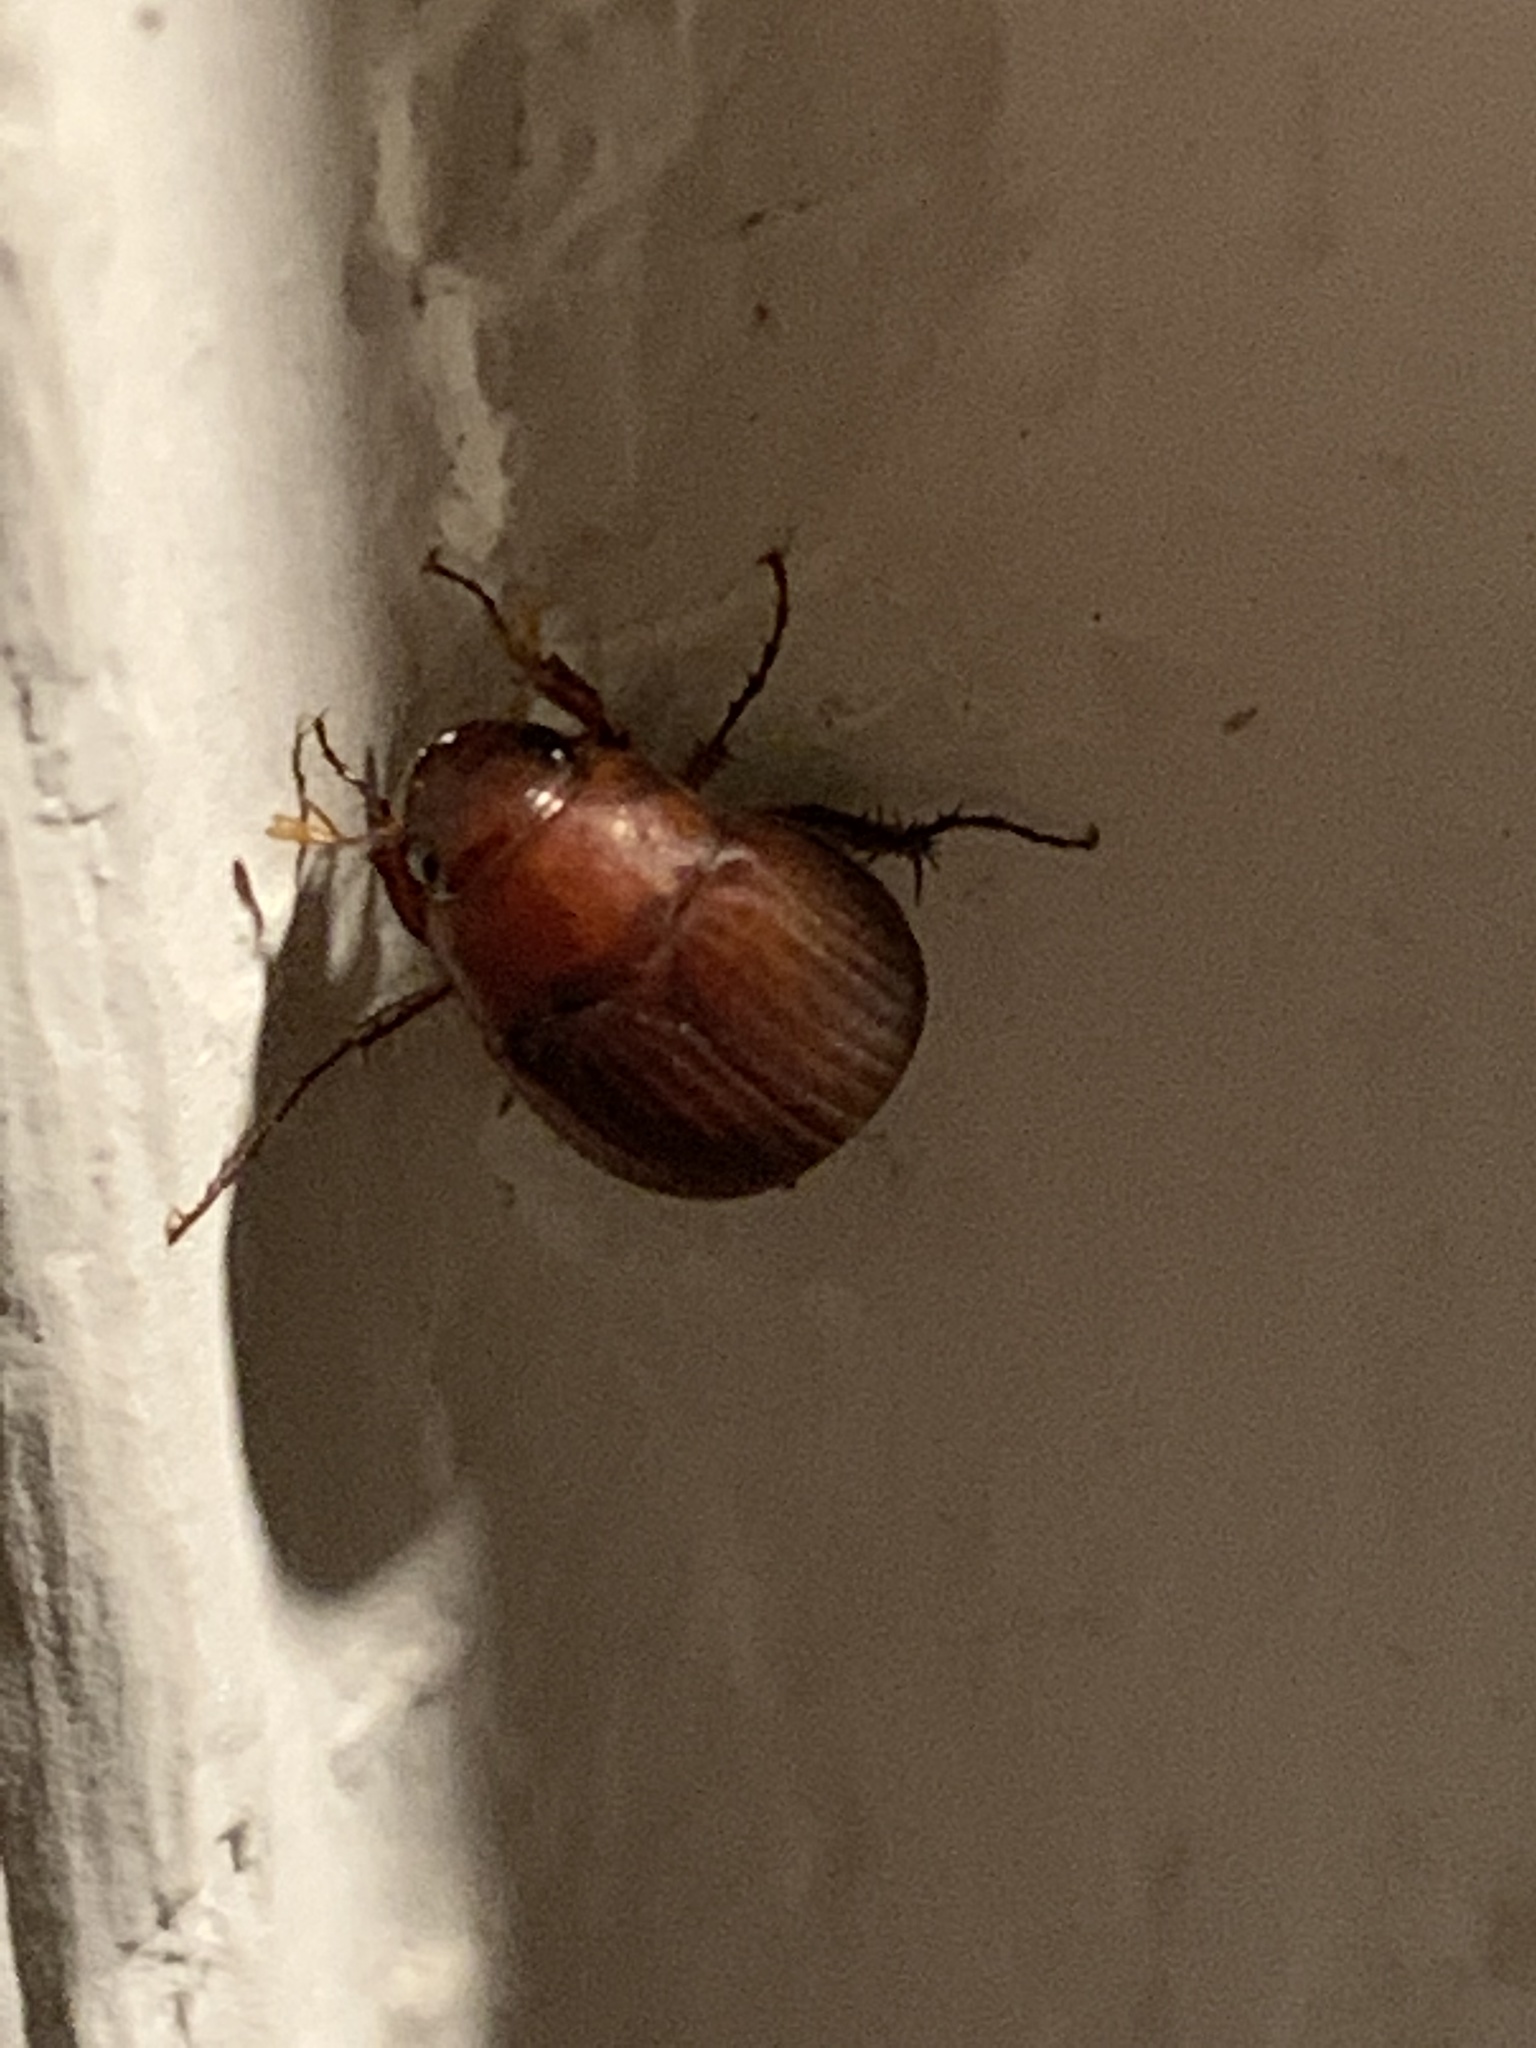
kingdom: Animalia
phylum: Arthropoda
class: Insecta
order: Coleoptera
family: Scarabaeidae
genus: Maladera
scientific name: Maladera formosae
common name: Asiatic garden beetle
